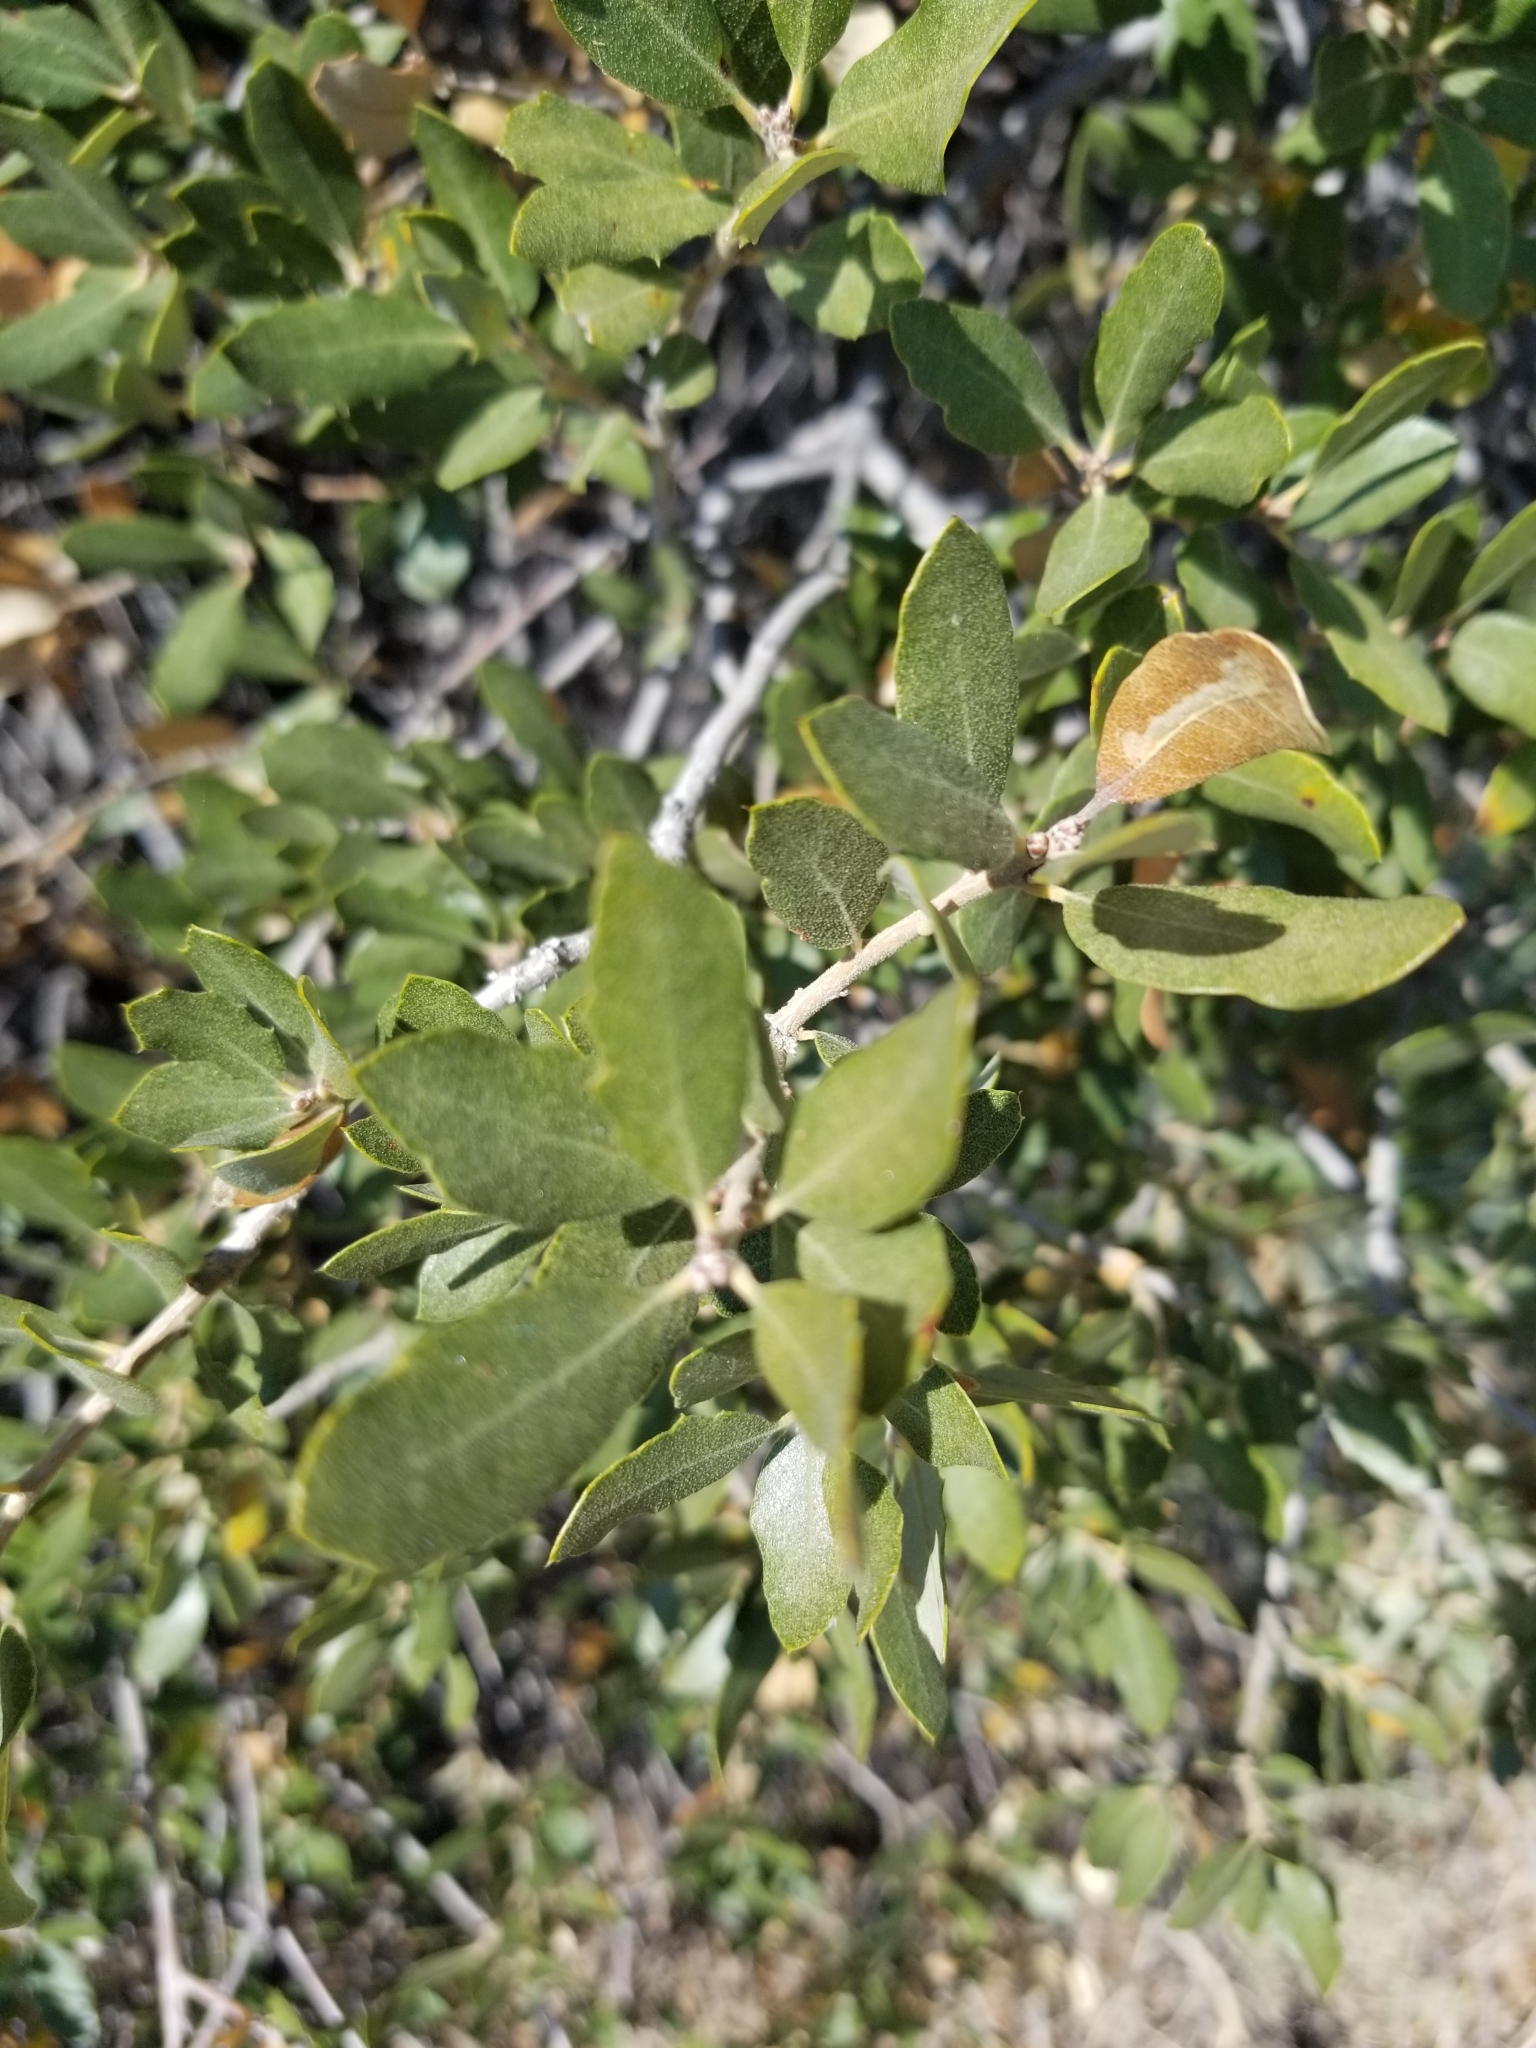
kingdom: Plantae
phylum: Tracheophyta
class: Magnoliopsida
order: Fagales
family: Fagaceae
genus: Quercus
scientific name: Quercus cornelius-mulleri
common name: Muller oak
